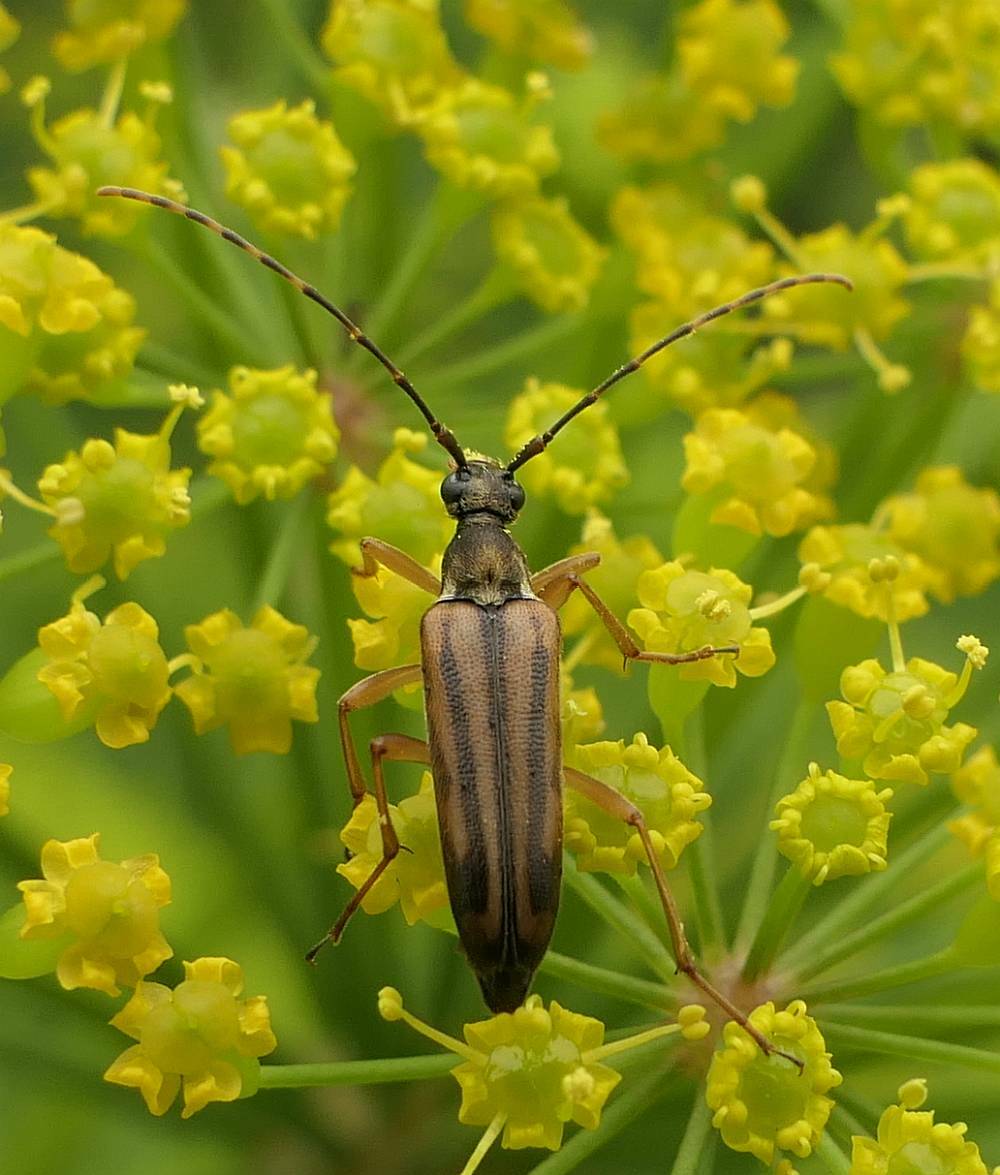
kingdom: Animalia
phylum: Arthropoda
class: Insecta
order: Coleoptera
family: Cerambycidae
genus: Analeptura
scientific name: Analeptura lineola
